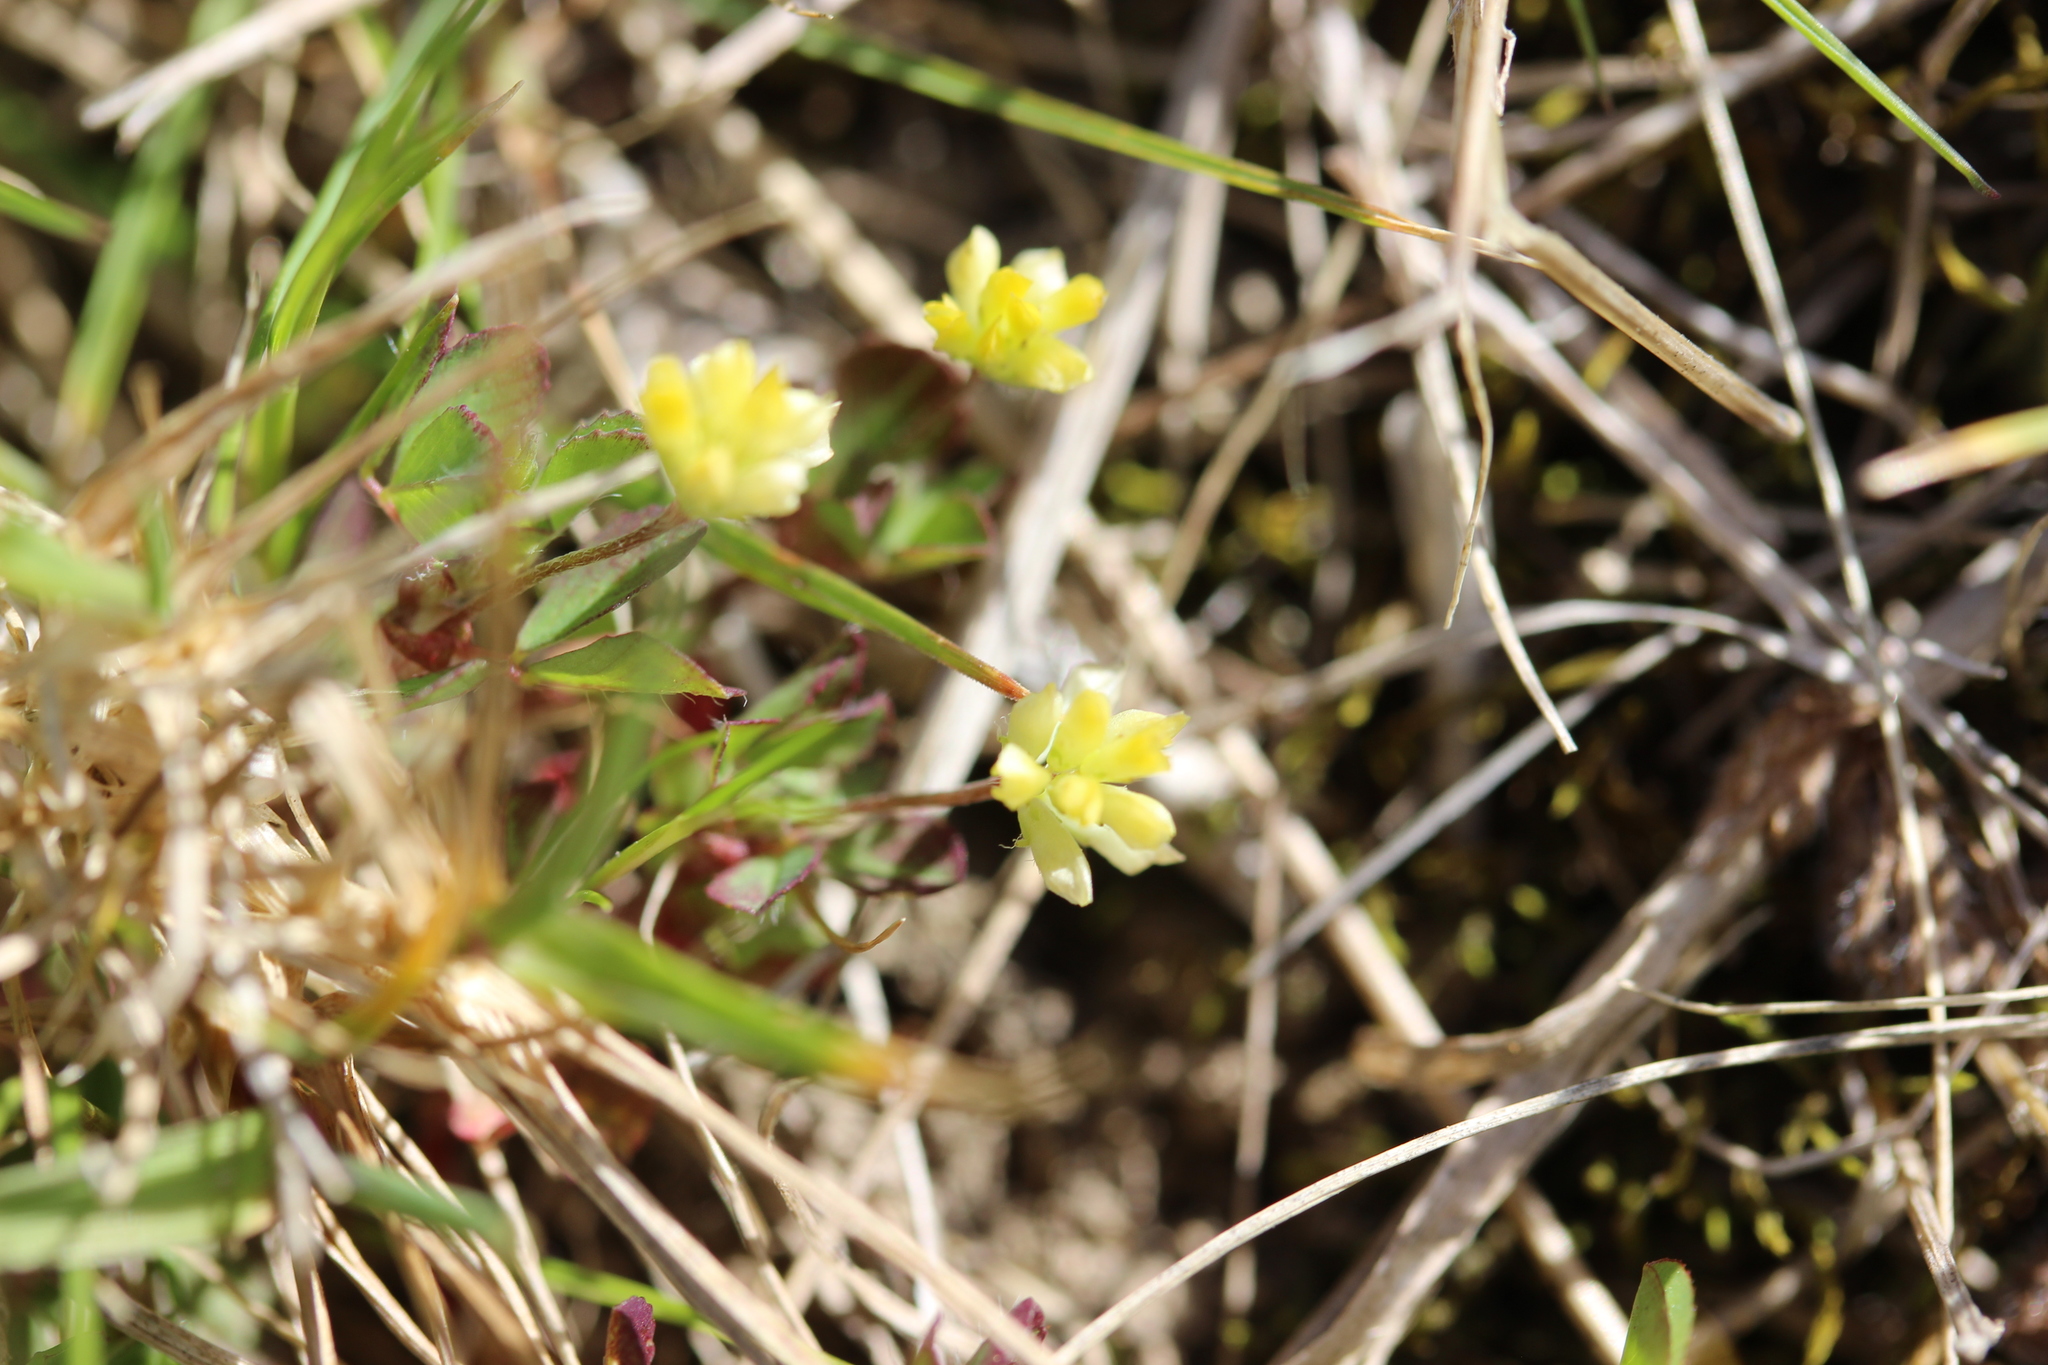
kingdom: Plantae
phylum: Tracheophyta
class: Magnoliopsida
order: Fabales
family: Fabaceae
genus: Trifolium
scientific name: Trifolium dubium
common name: Suckling clover
